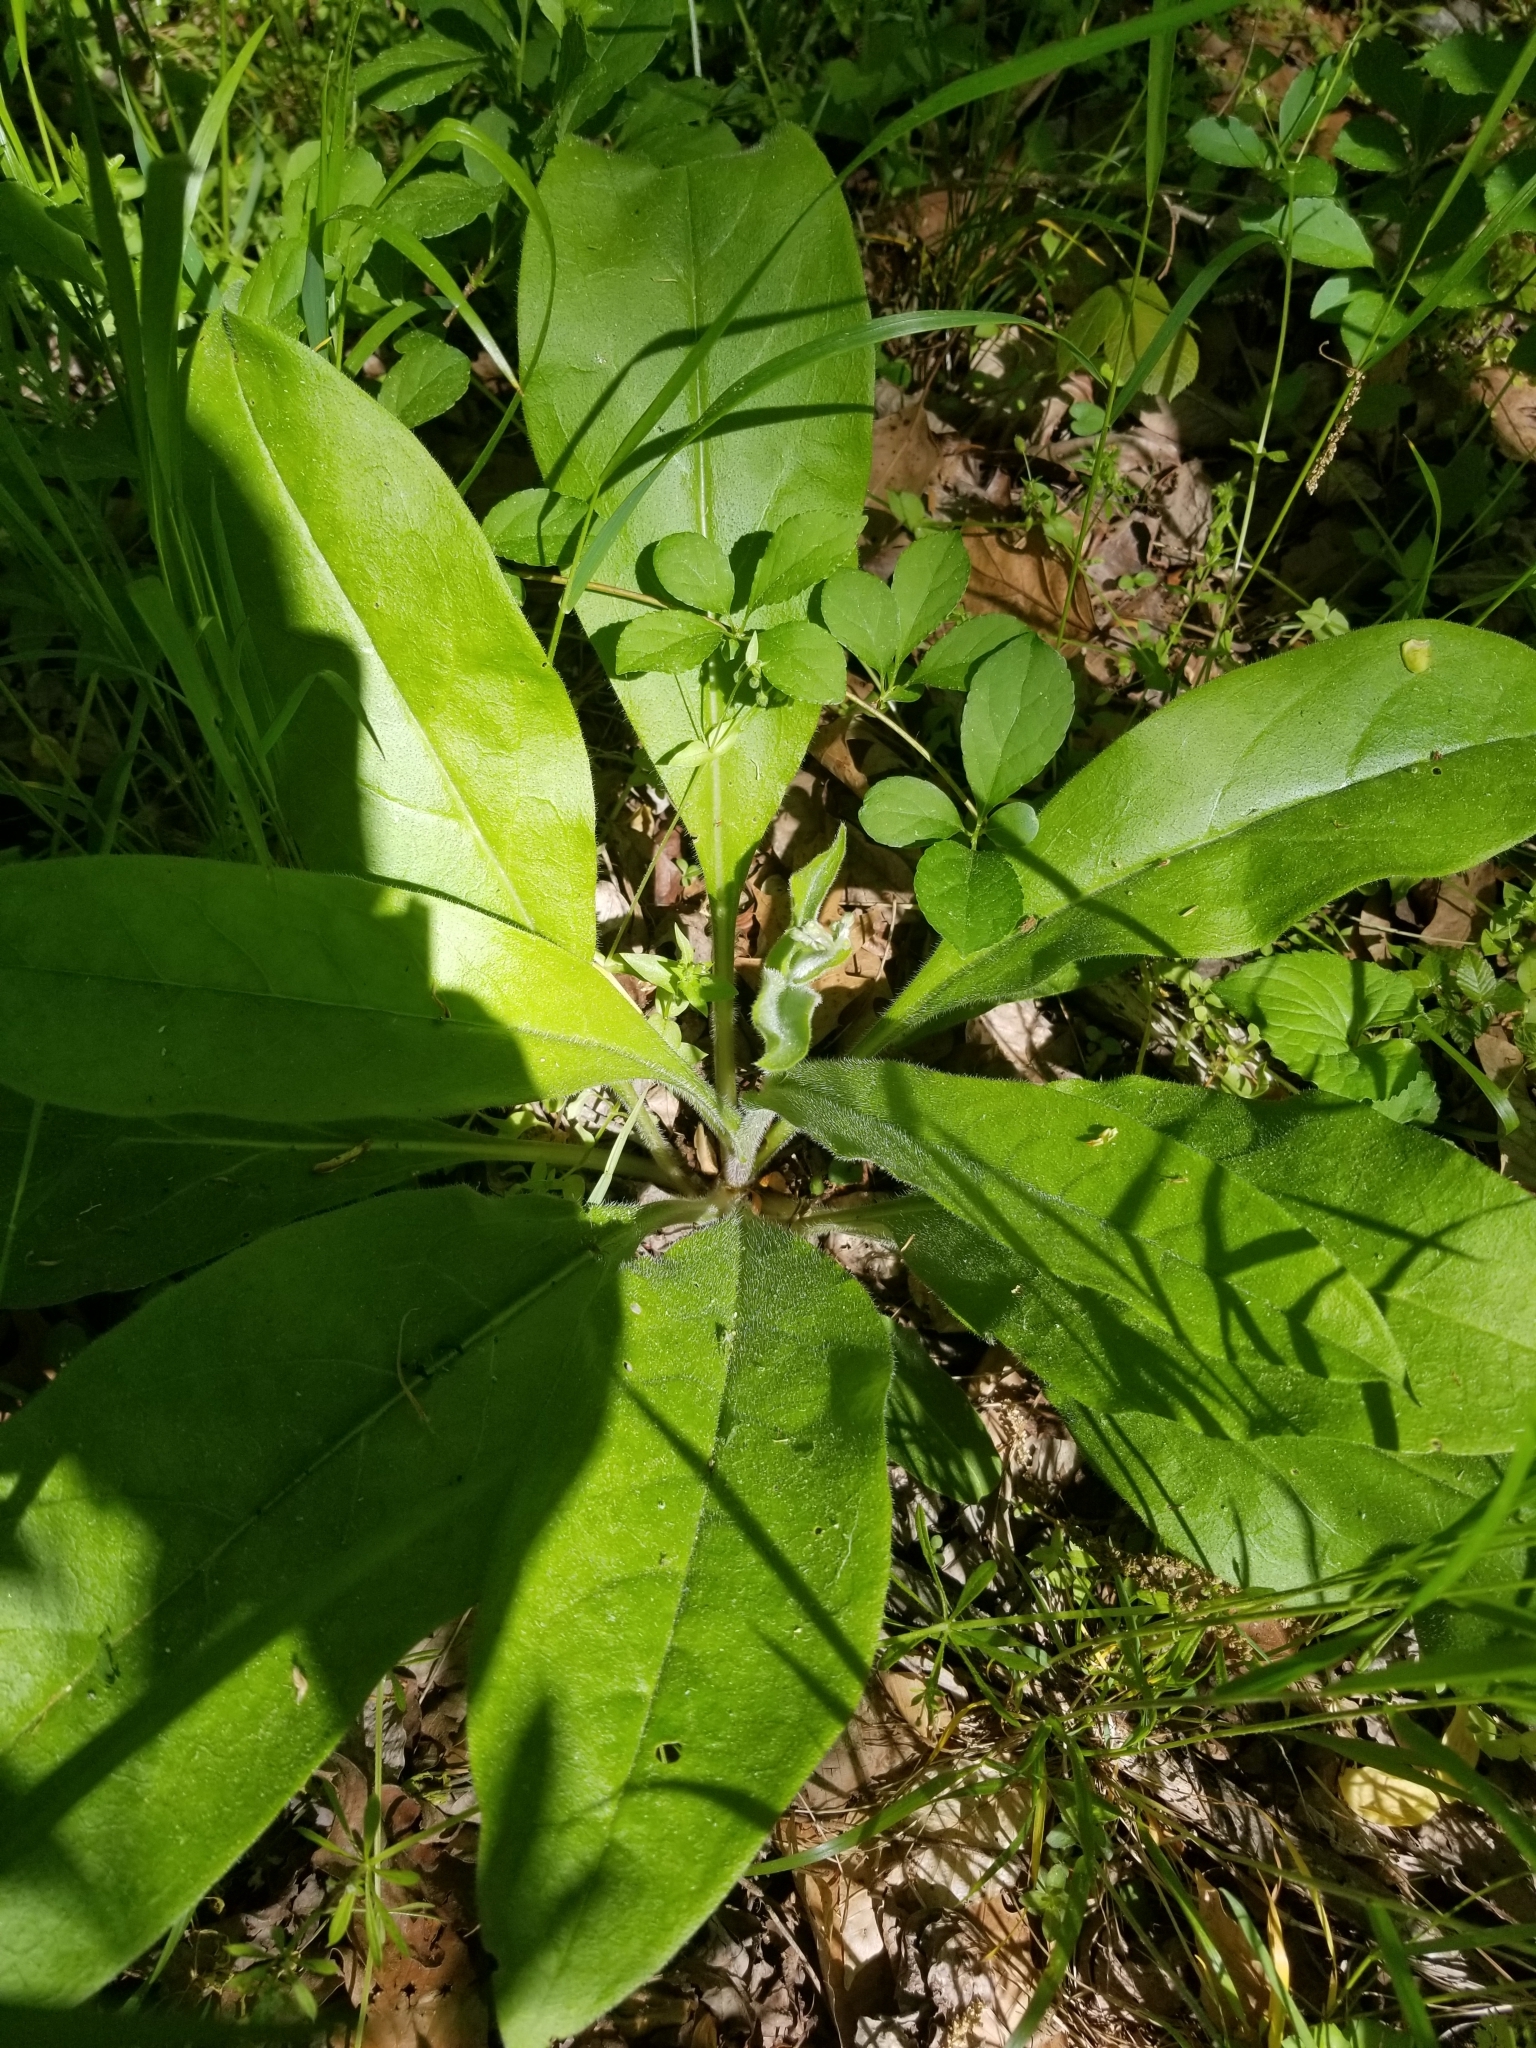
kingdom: Plantae
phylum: Tracheophyta
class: Magnoliopsida
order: Boraginales
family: Boraginaceae
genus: Andersonglossum
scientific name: Andersonglossum virginianum
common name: Wild comfrey
